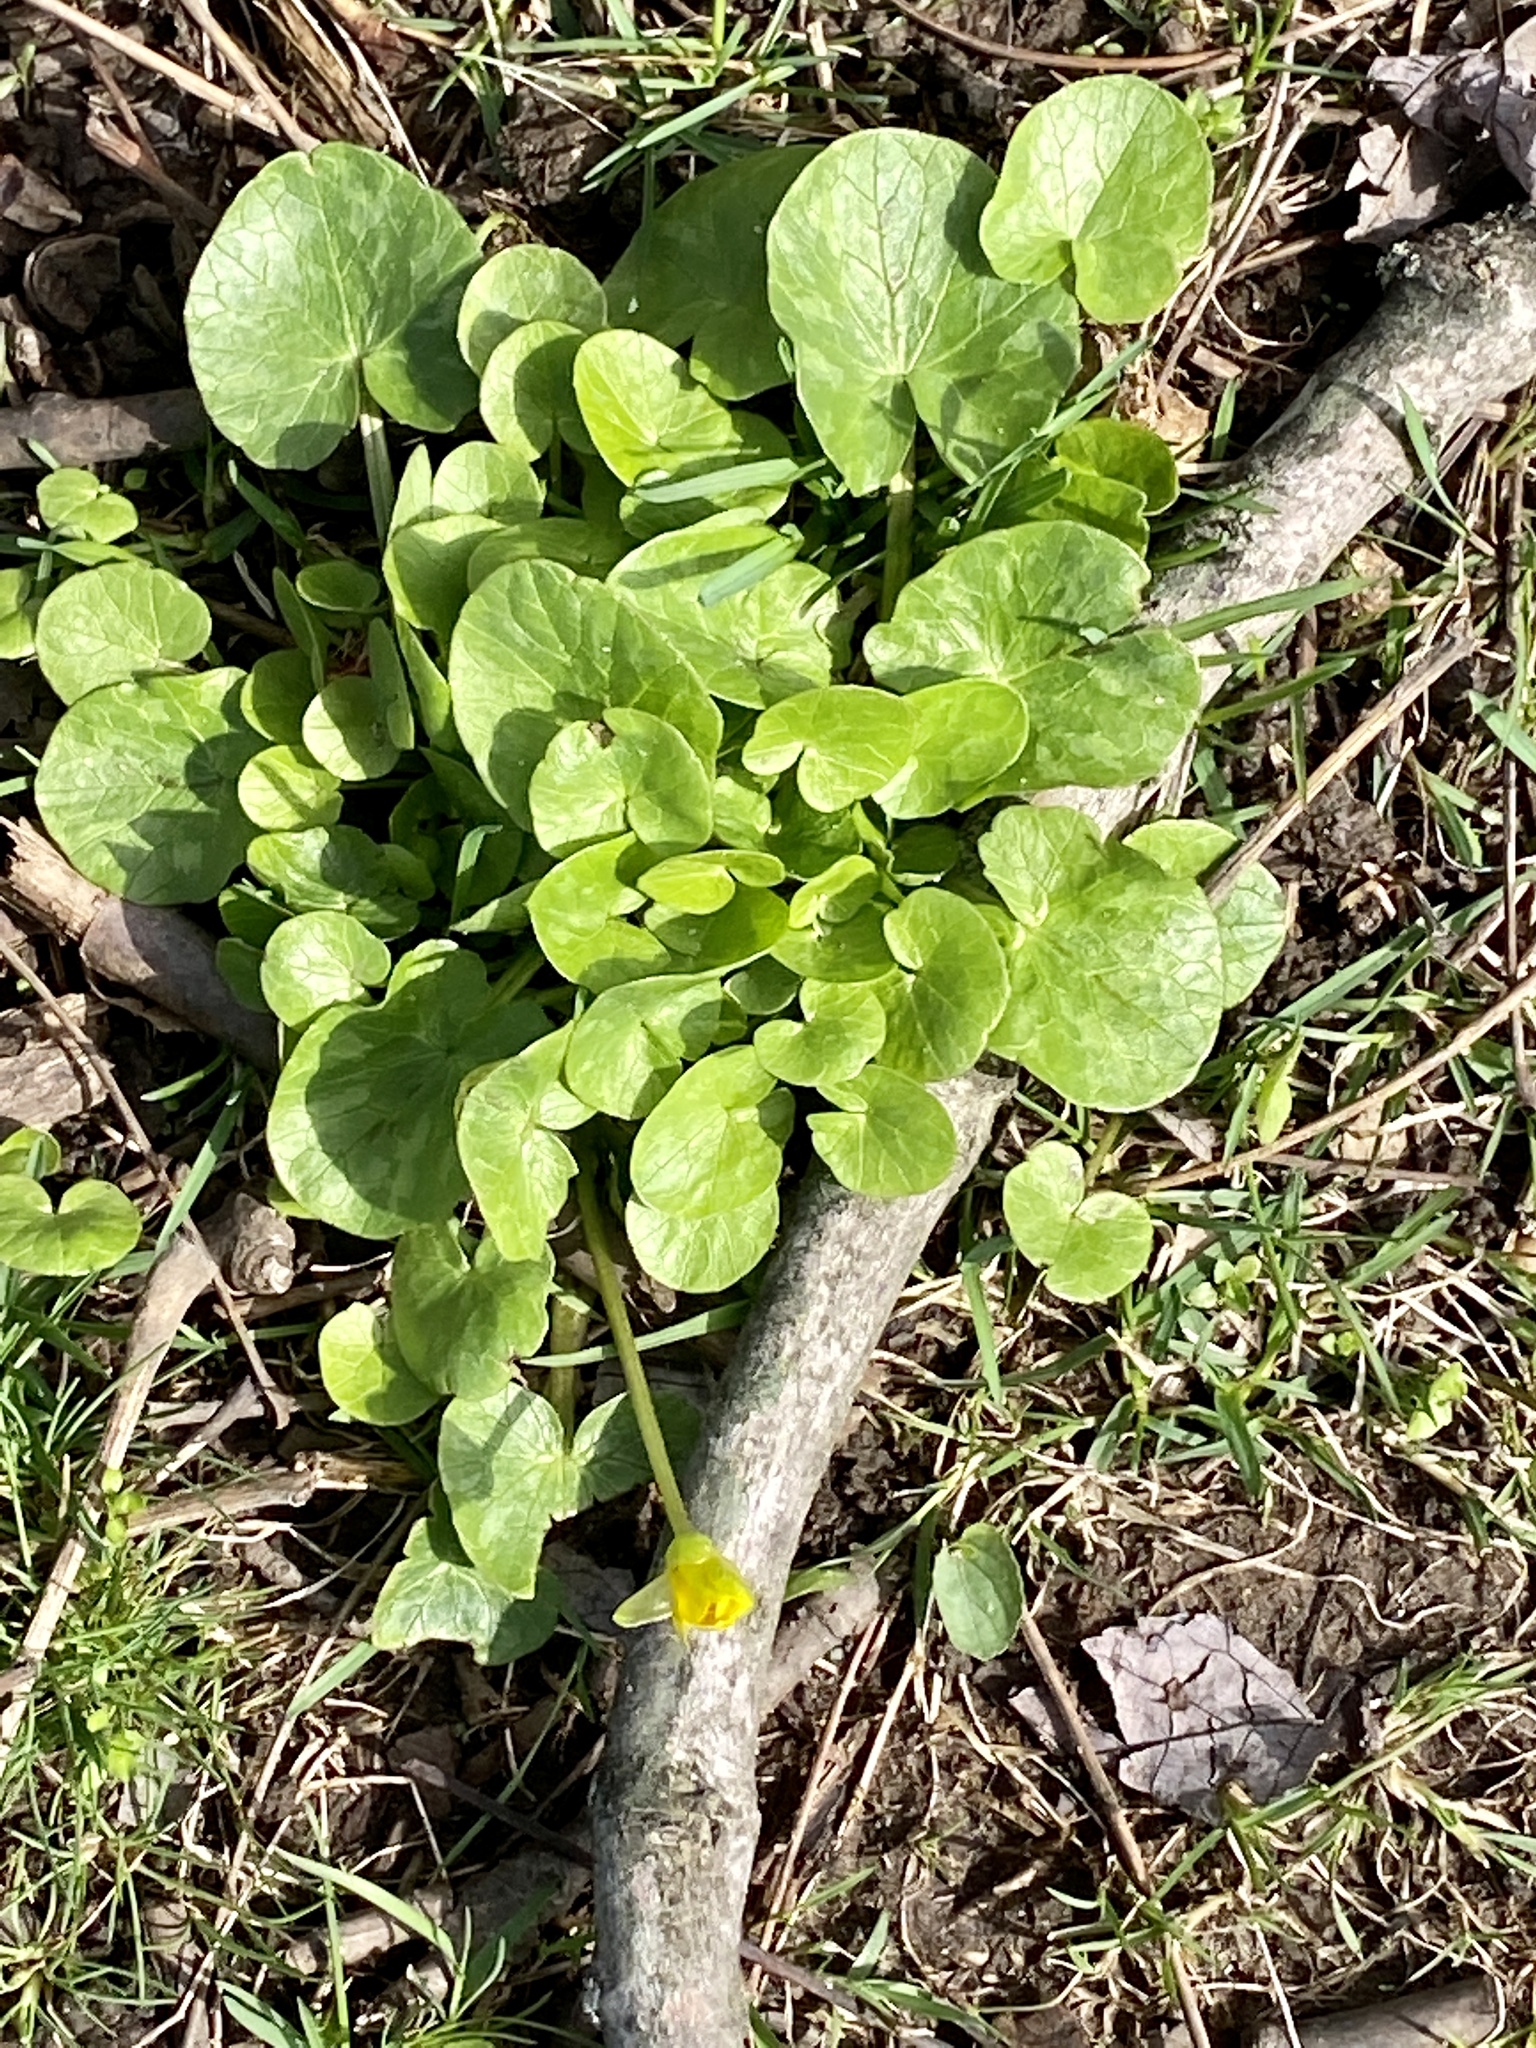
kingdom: Plantae
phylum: Tracheophyta
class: Magnoliopsida
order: Ranunculales
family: Ranunculaceae
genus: Ficaria
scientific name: Ficaria verna
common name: Lesser celandine
